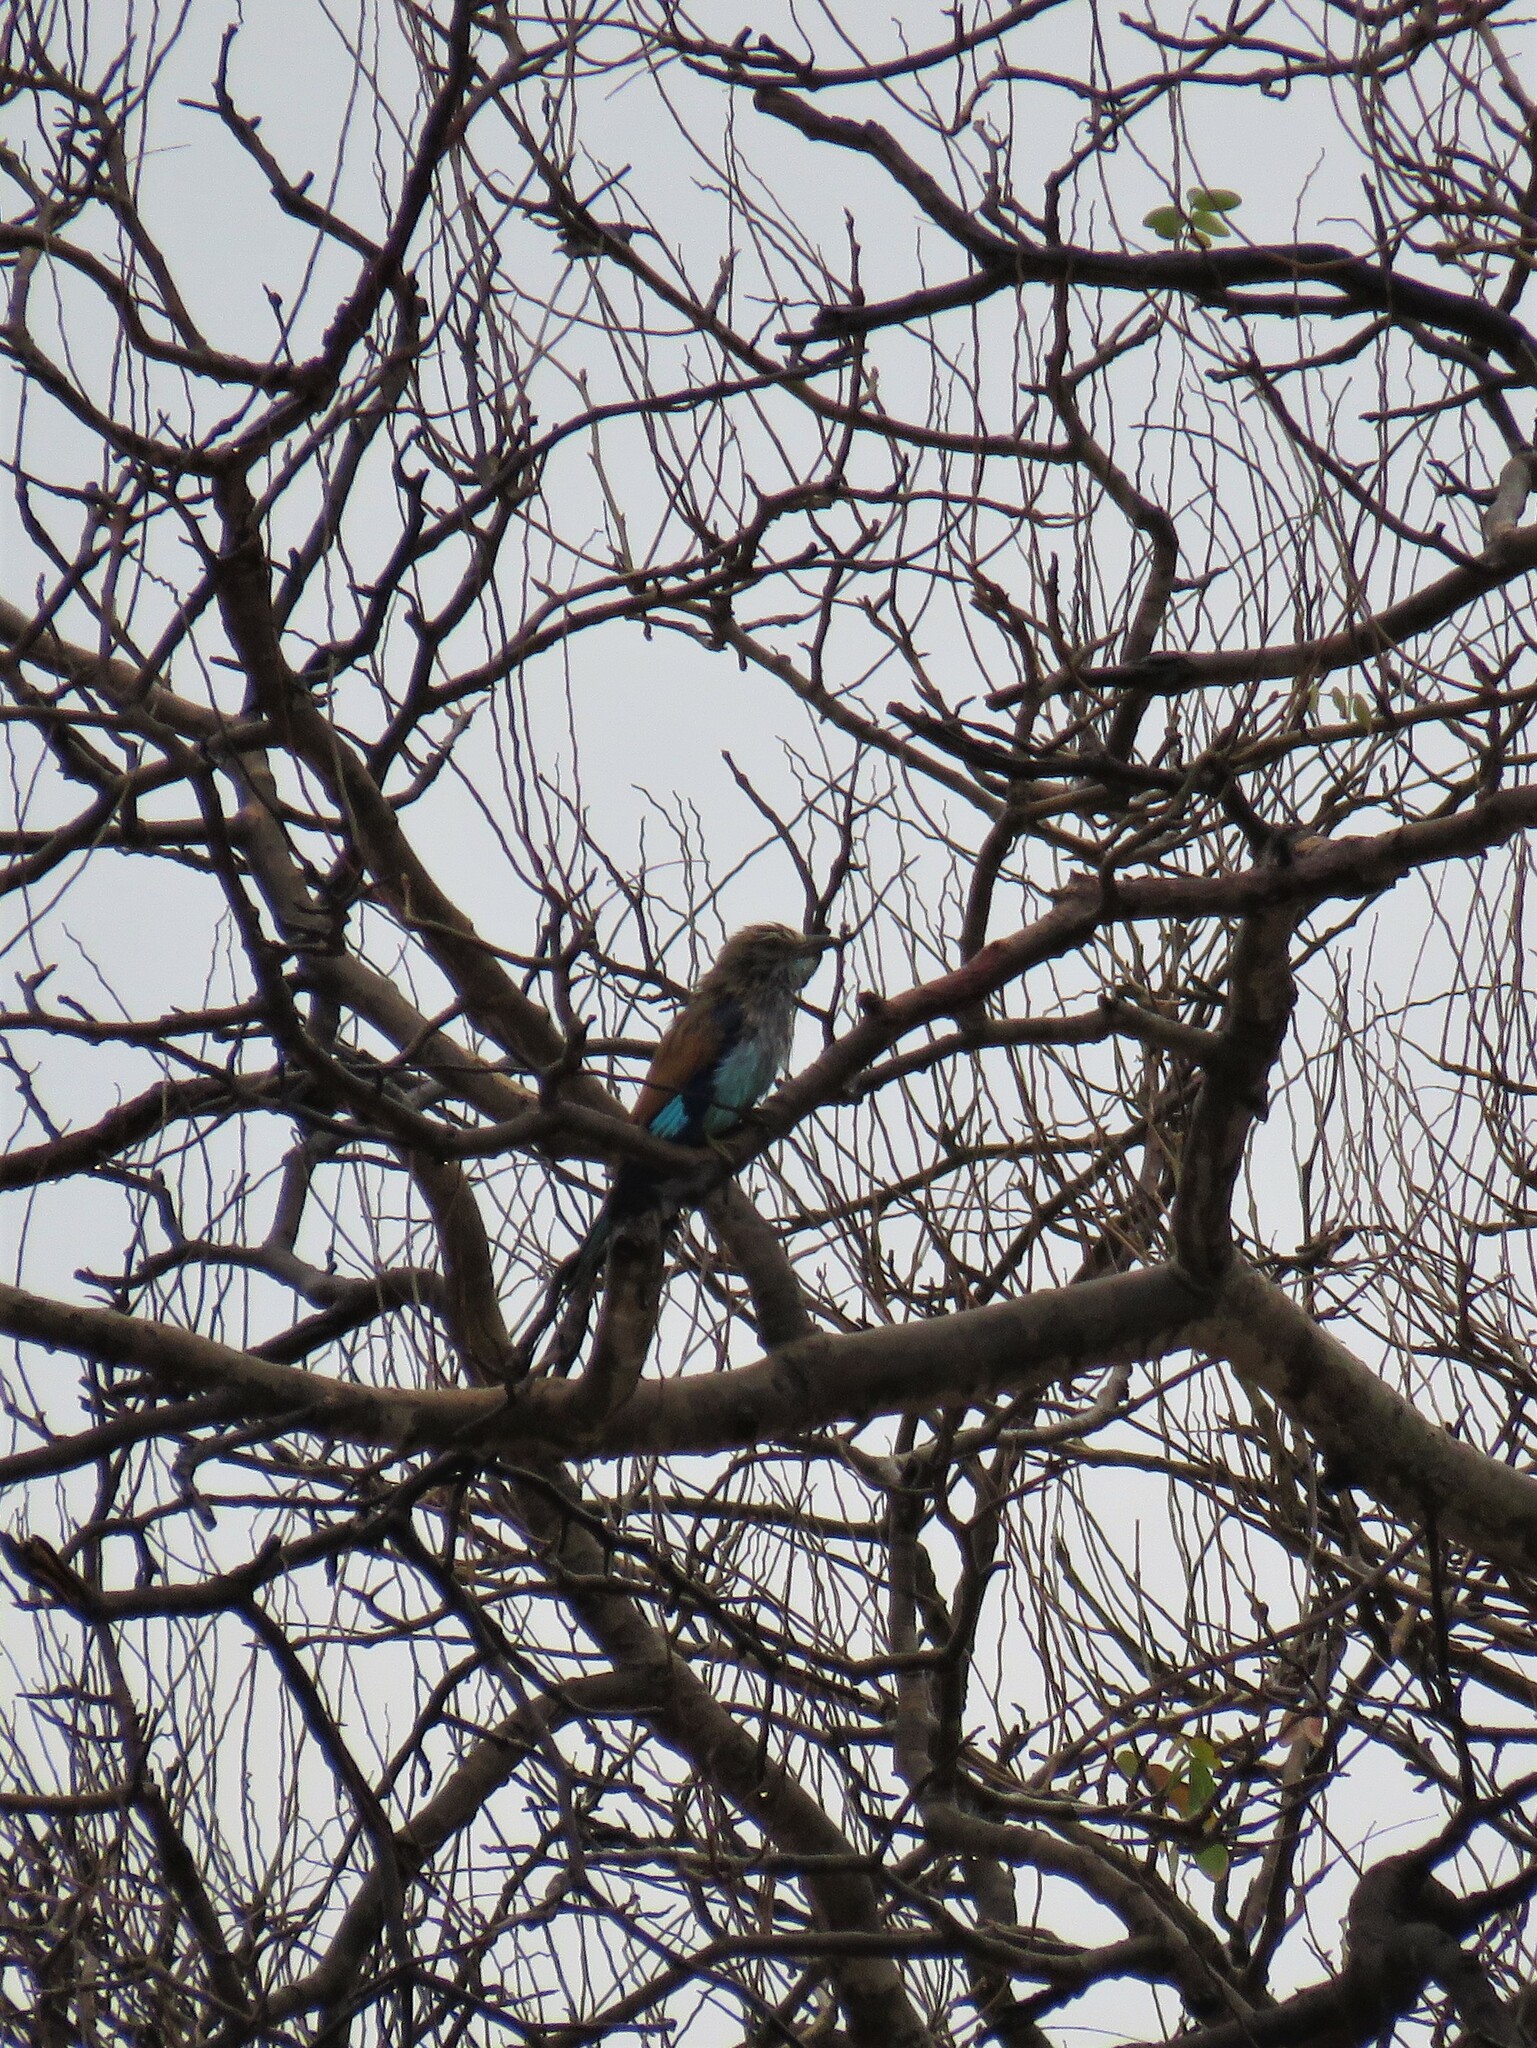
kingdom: Animalia
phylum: Chordata
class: Aves
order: Coraciiformes
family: Coraciidae
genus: Coracias
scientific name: Coracias spatulatus
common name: Racket-tailed roller
